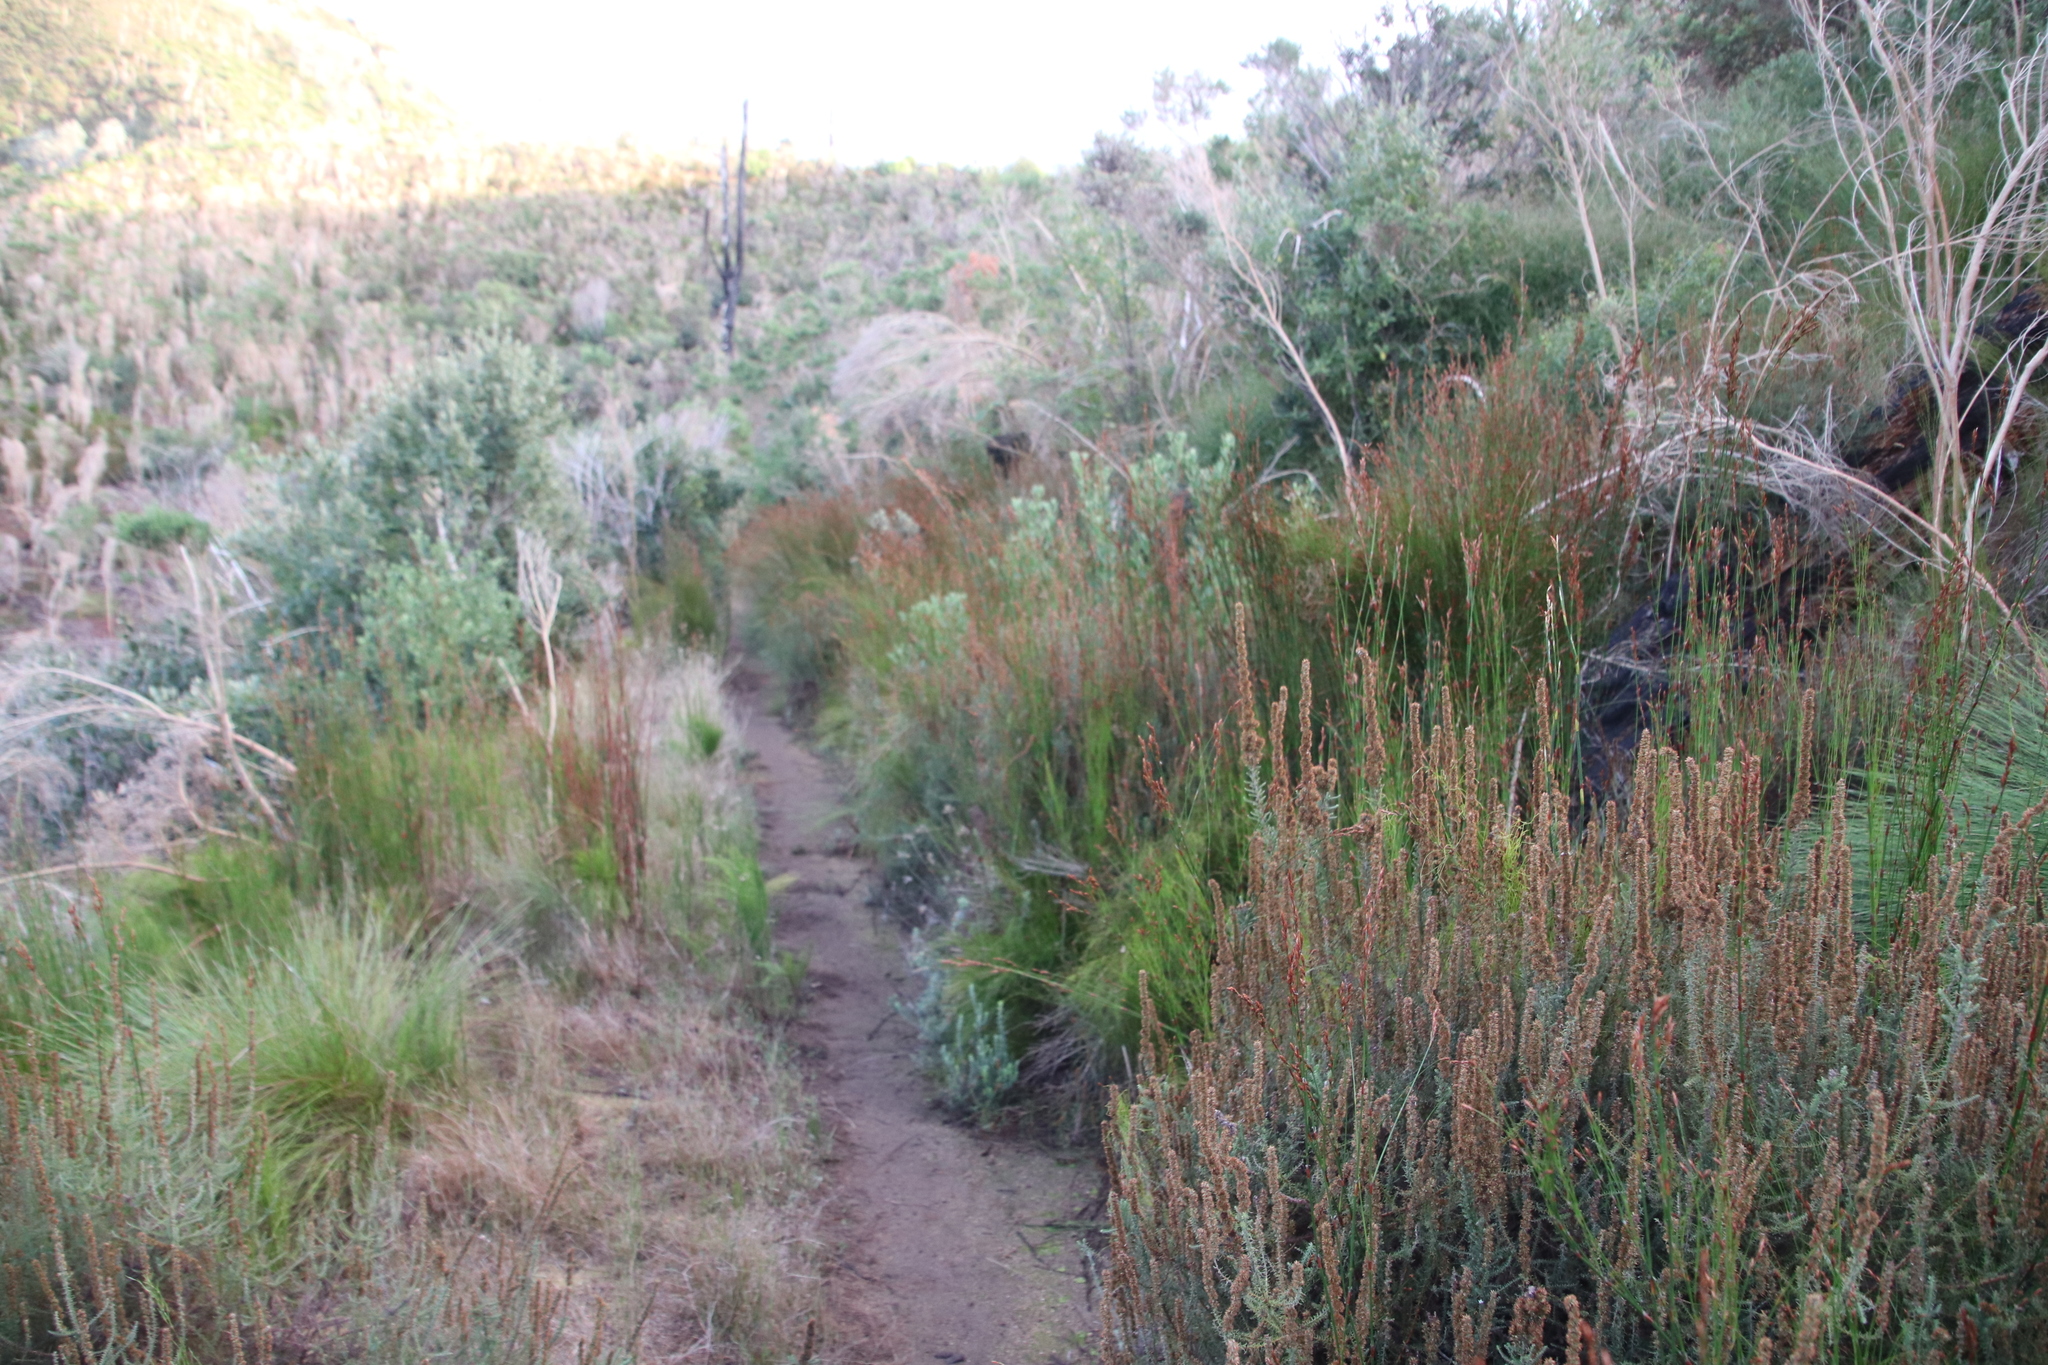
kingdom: Plantae
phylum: Tracheophyta
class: Liliopsida
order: Poales
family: Restionaceae
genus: Restio
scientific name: Restio multiflorus
